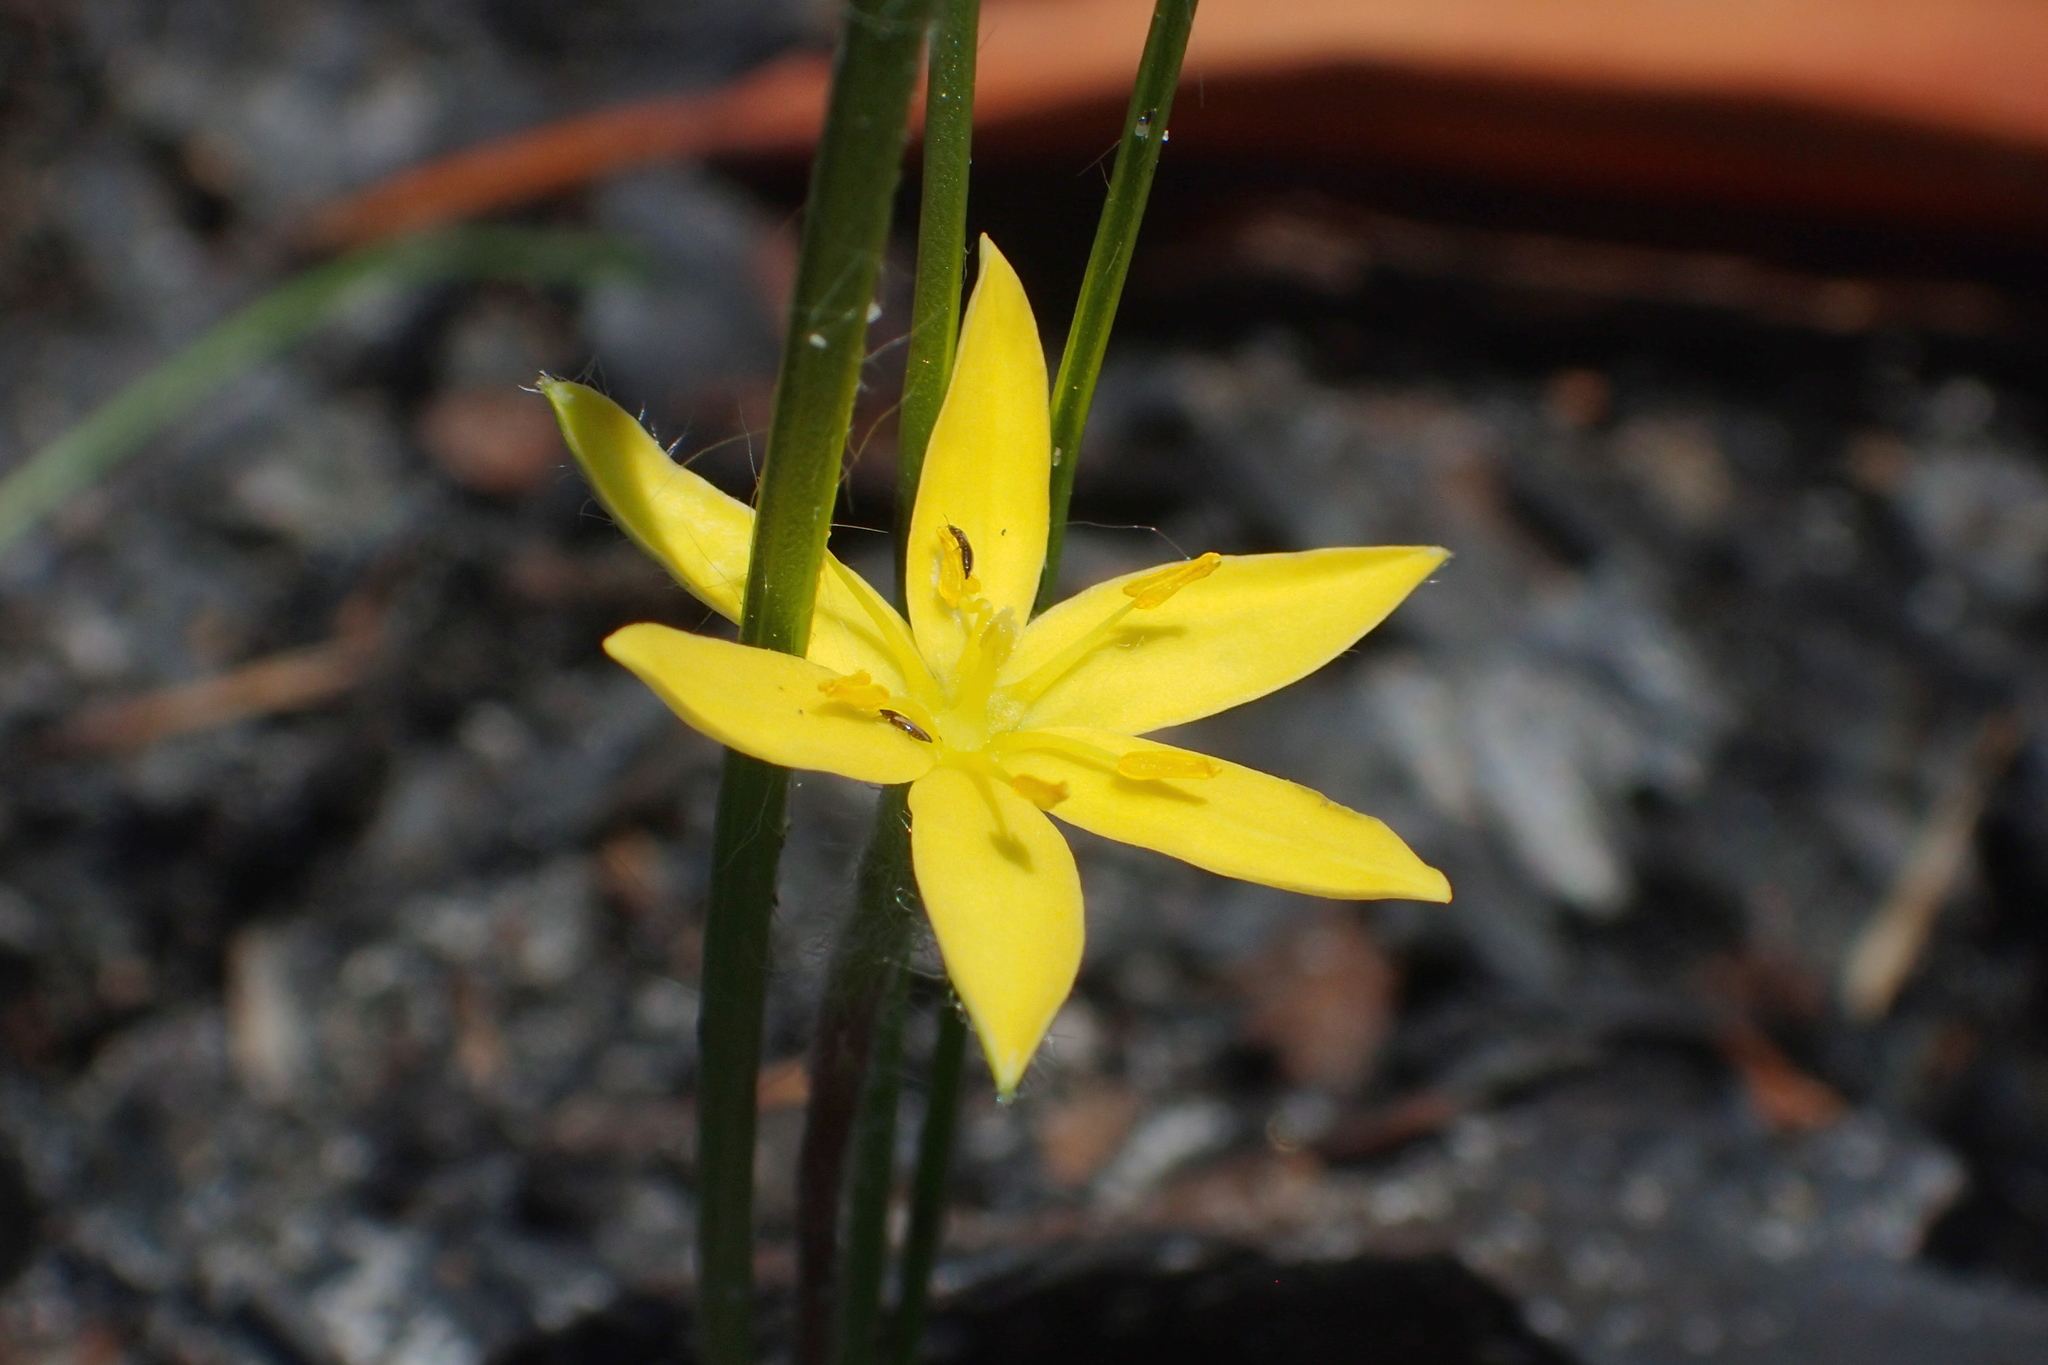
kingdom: Plantae
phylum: Tracheophyta
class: Liliopsida
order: Asparagales
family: Hypoxidaceae
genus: Hypoxis
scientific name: Hypoxis hirsuta
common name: Common goldstar
